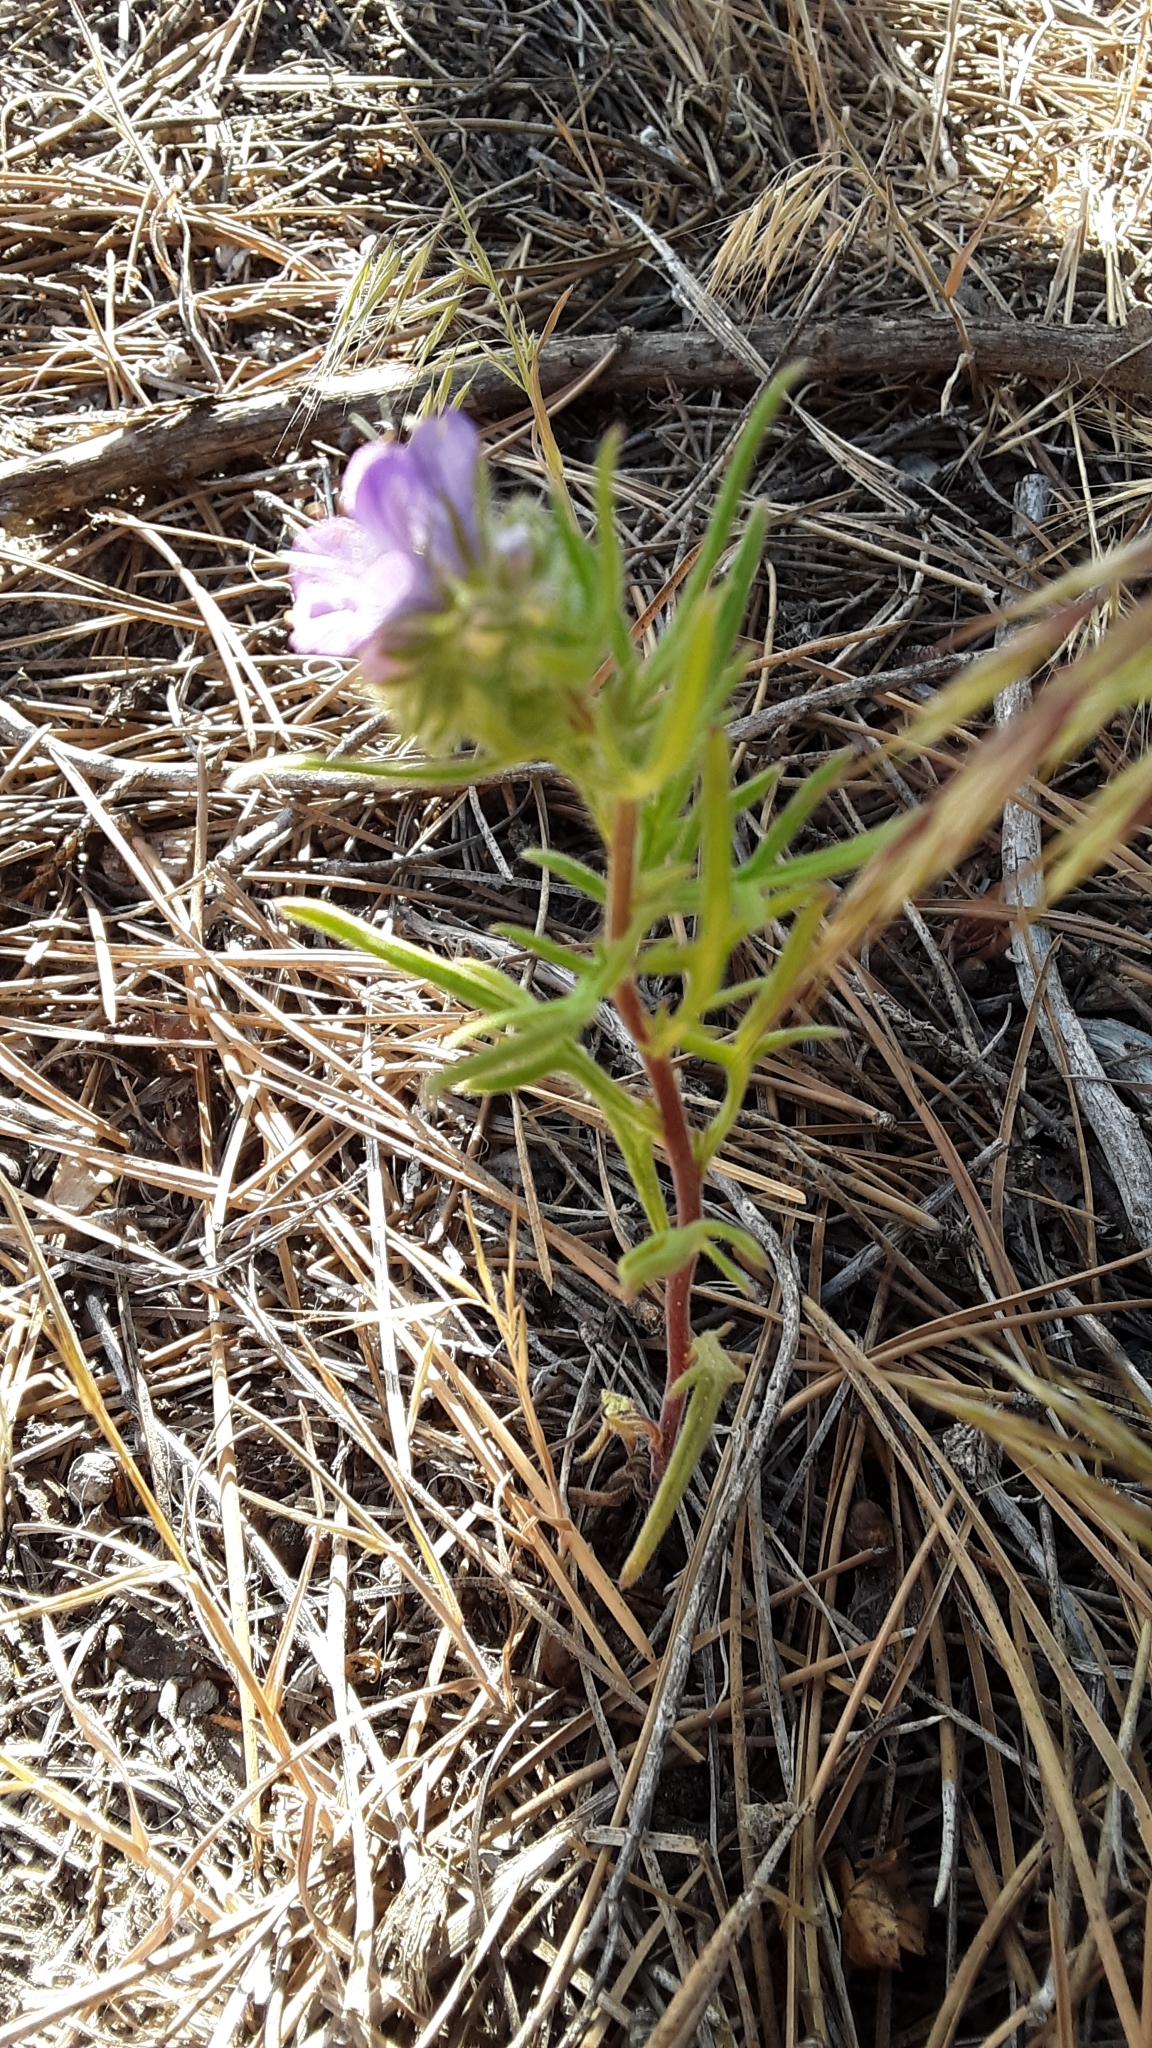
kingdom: Plantae
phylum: Tracheophyta
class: Magnoliopsida
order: Boraginales
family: Hydrophyllaceae
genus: Phacelia
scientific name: Phacelia linearis
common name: Linear-leaved phacelia
